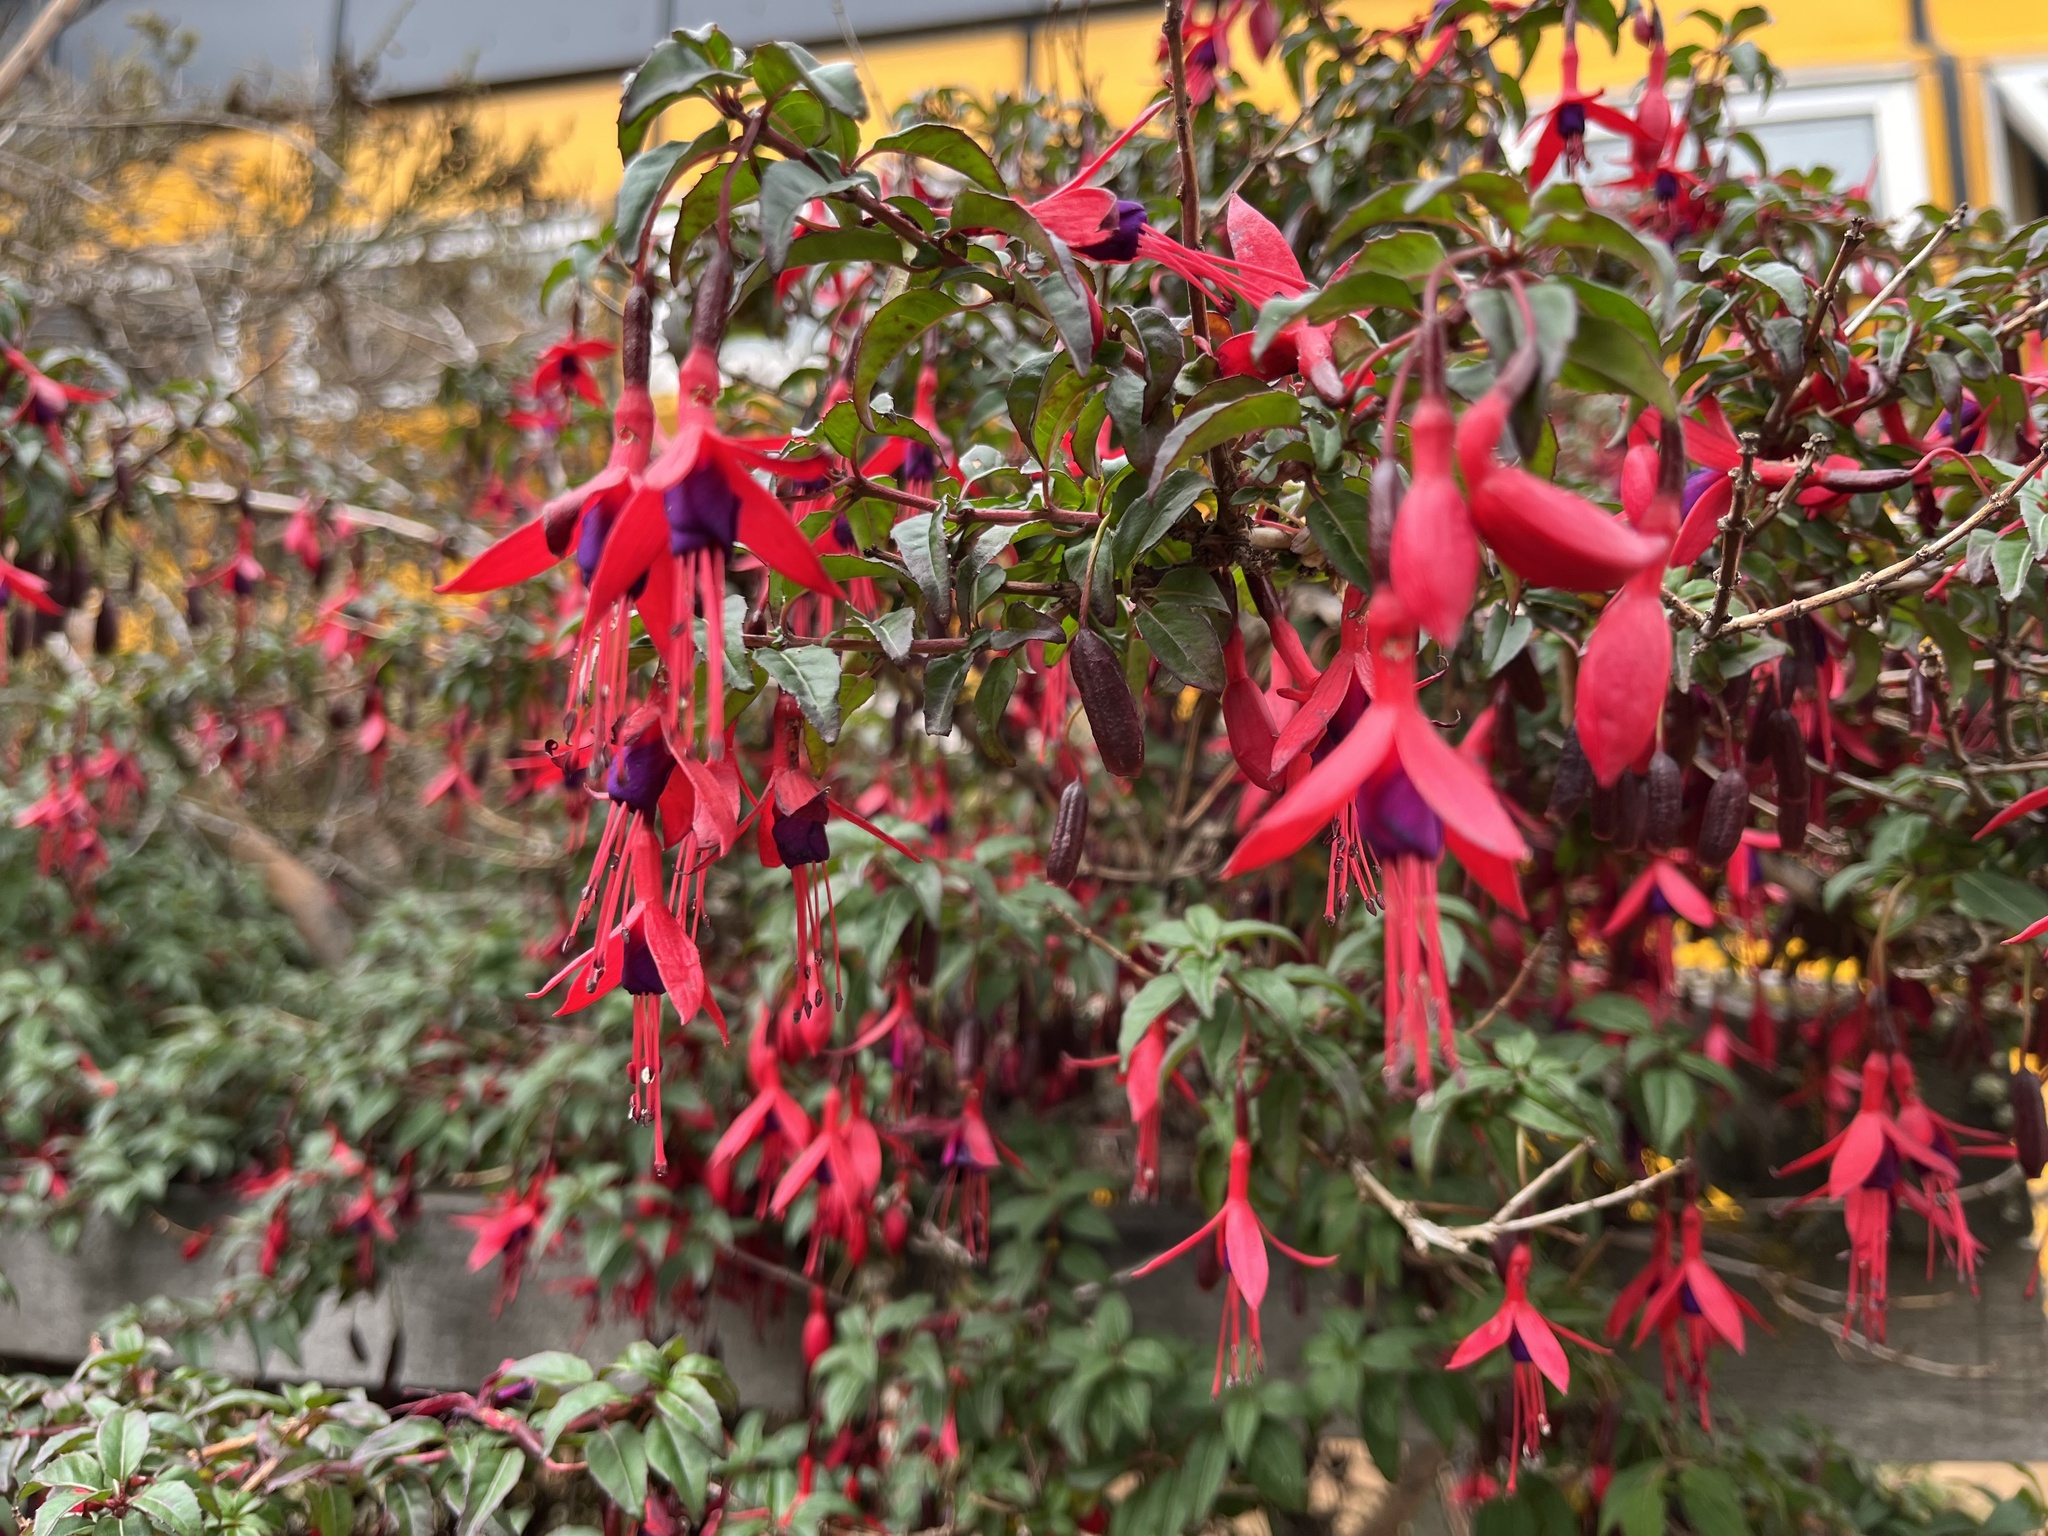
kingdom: Plantae
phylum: Tracheophyta
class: Magnoliopsida
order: Myrtales
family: Onagraceae
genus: Fuchsia
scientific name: Fuchsia magellanica
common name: Hardy fuchsia
